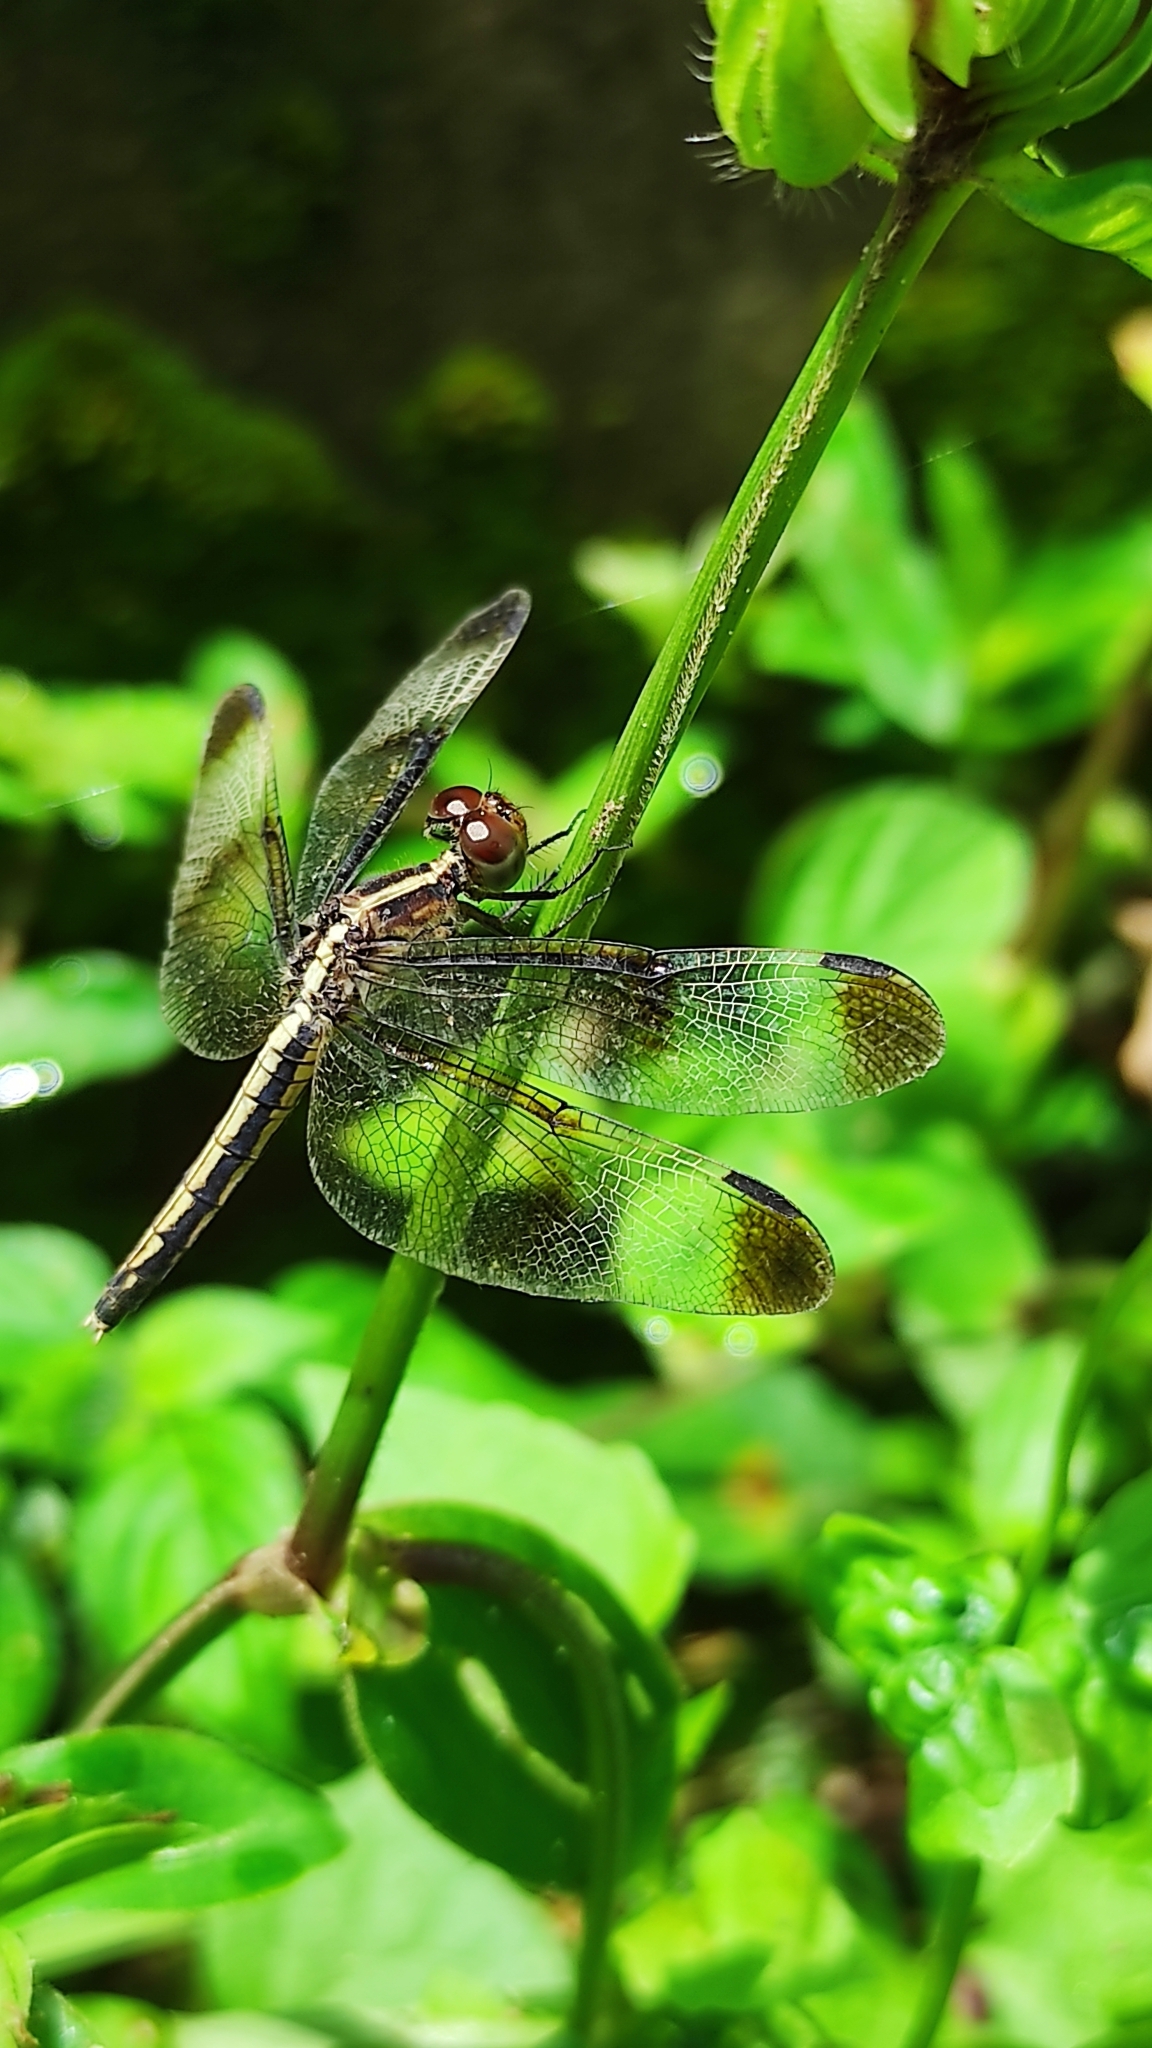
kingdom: Animalia
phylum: Arthropoda
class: Insecta
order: Odonata
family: Libellulidae
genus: Neurothemis
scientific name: Neurothemis tullia
